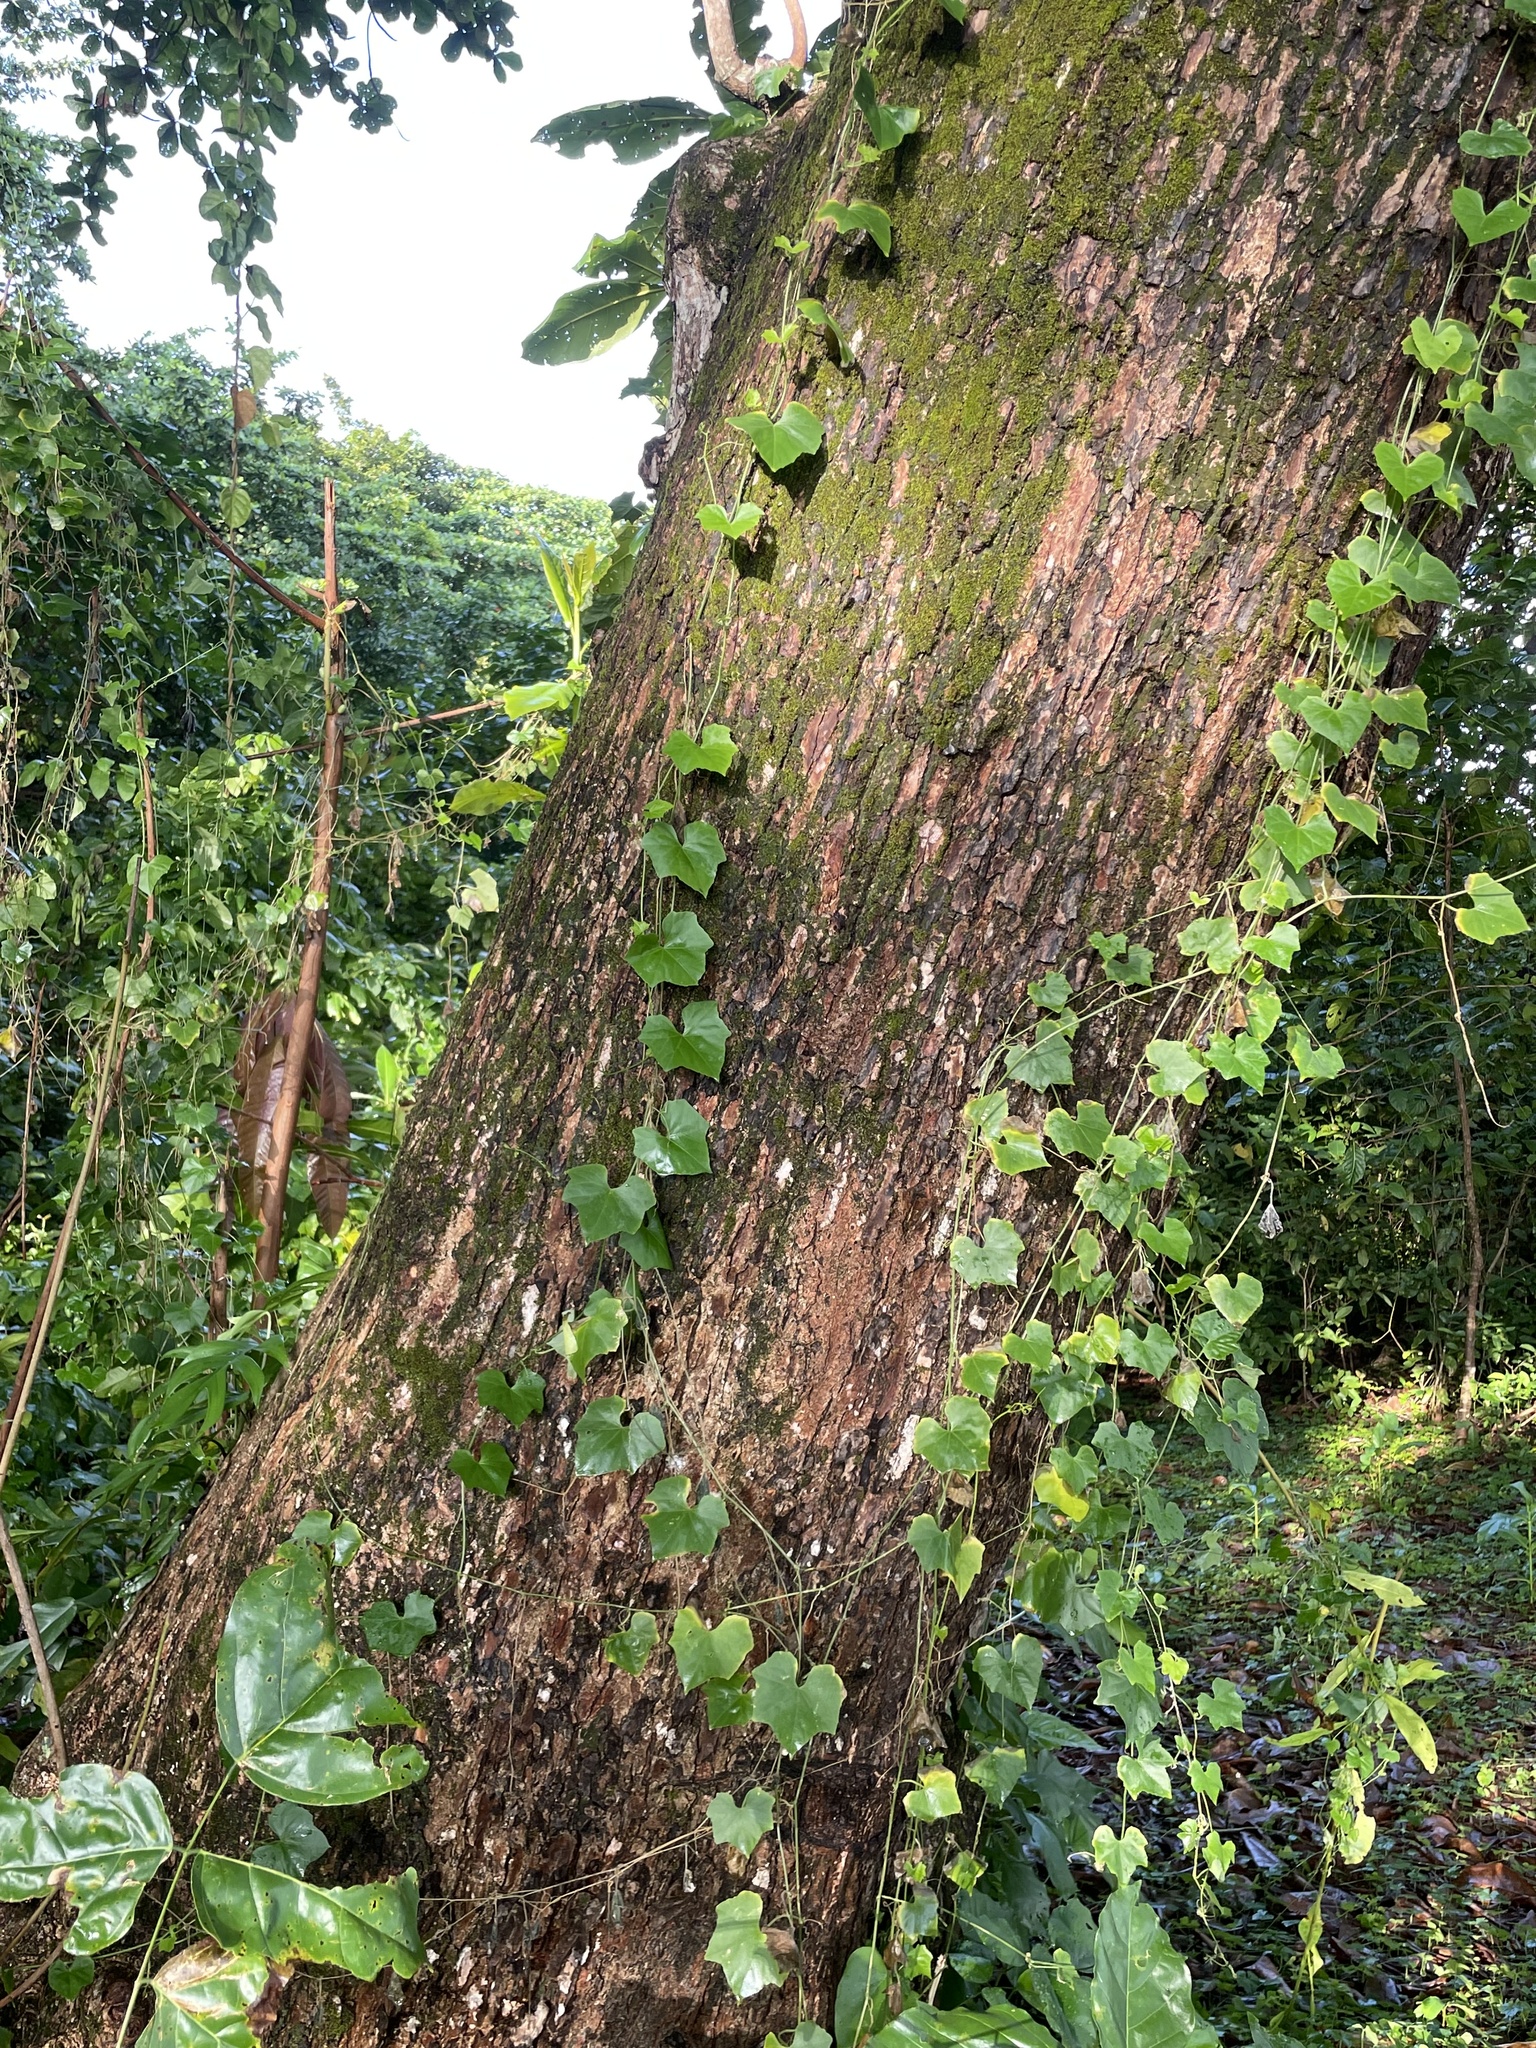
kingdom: Plantae
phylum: Tracheophyta
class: Magnoliopsida
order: Cucurbitales
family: Cucurbitaceae
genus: Melothria
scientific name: Melothria pendula
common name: Creeping-cucumber
